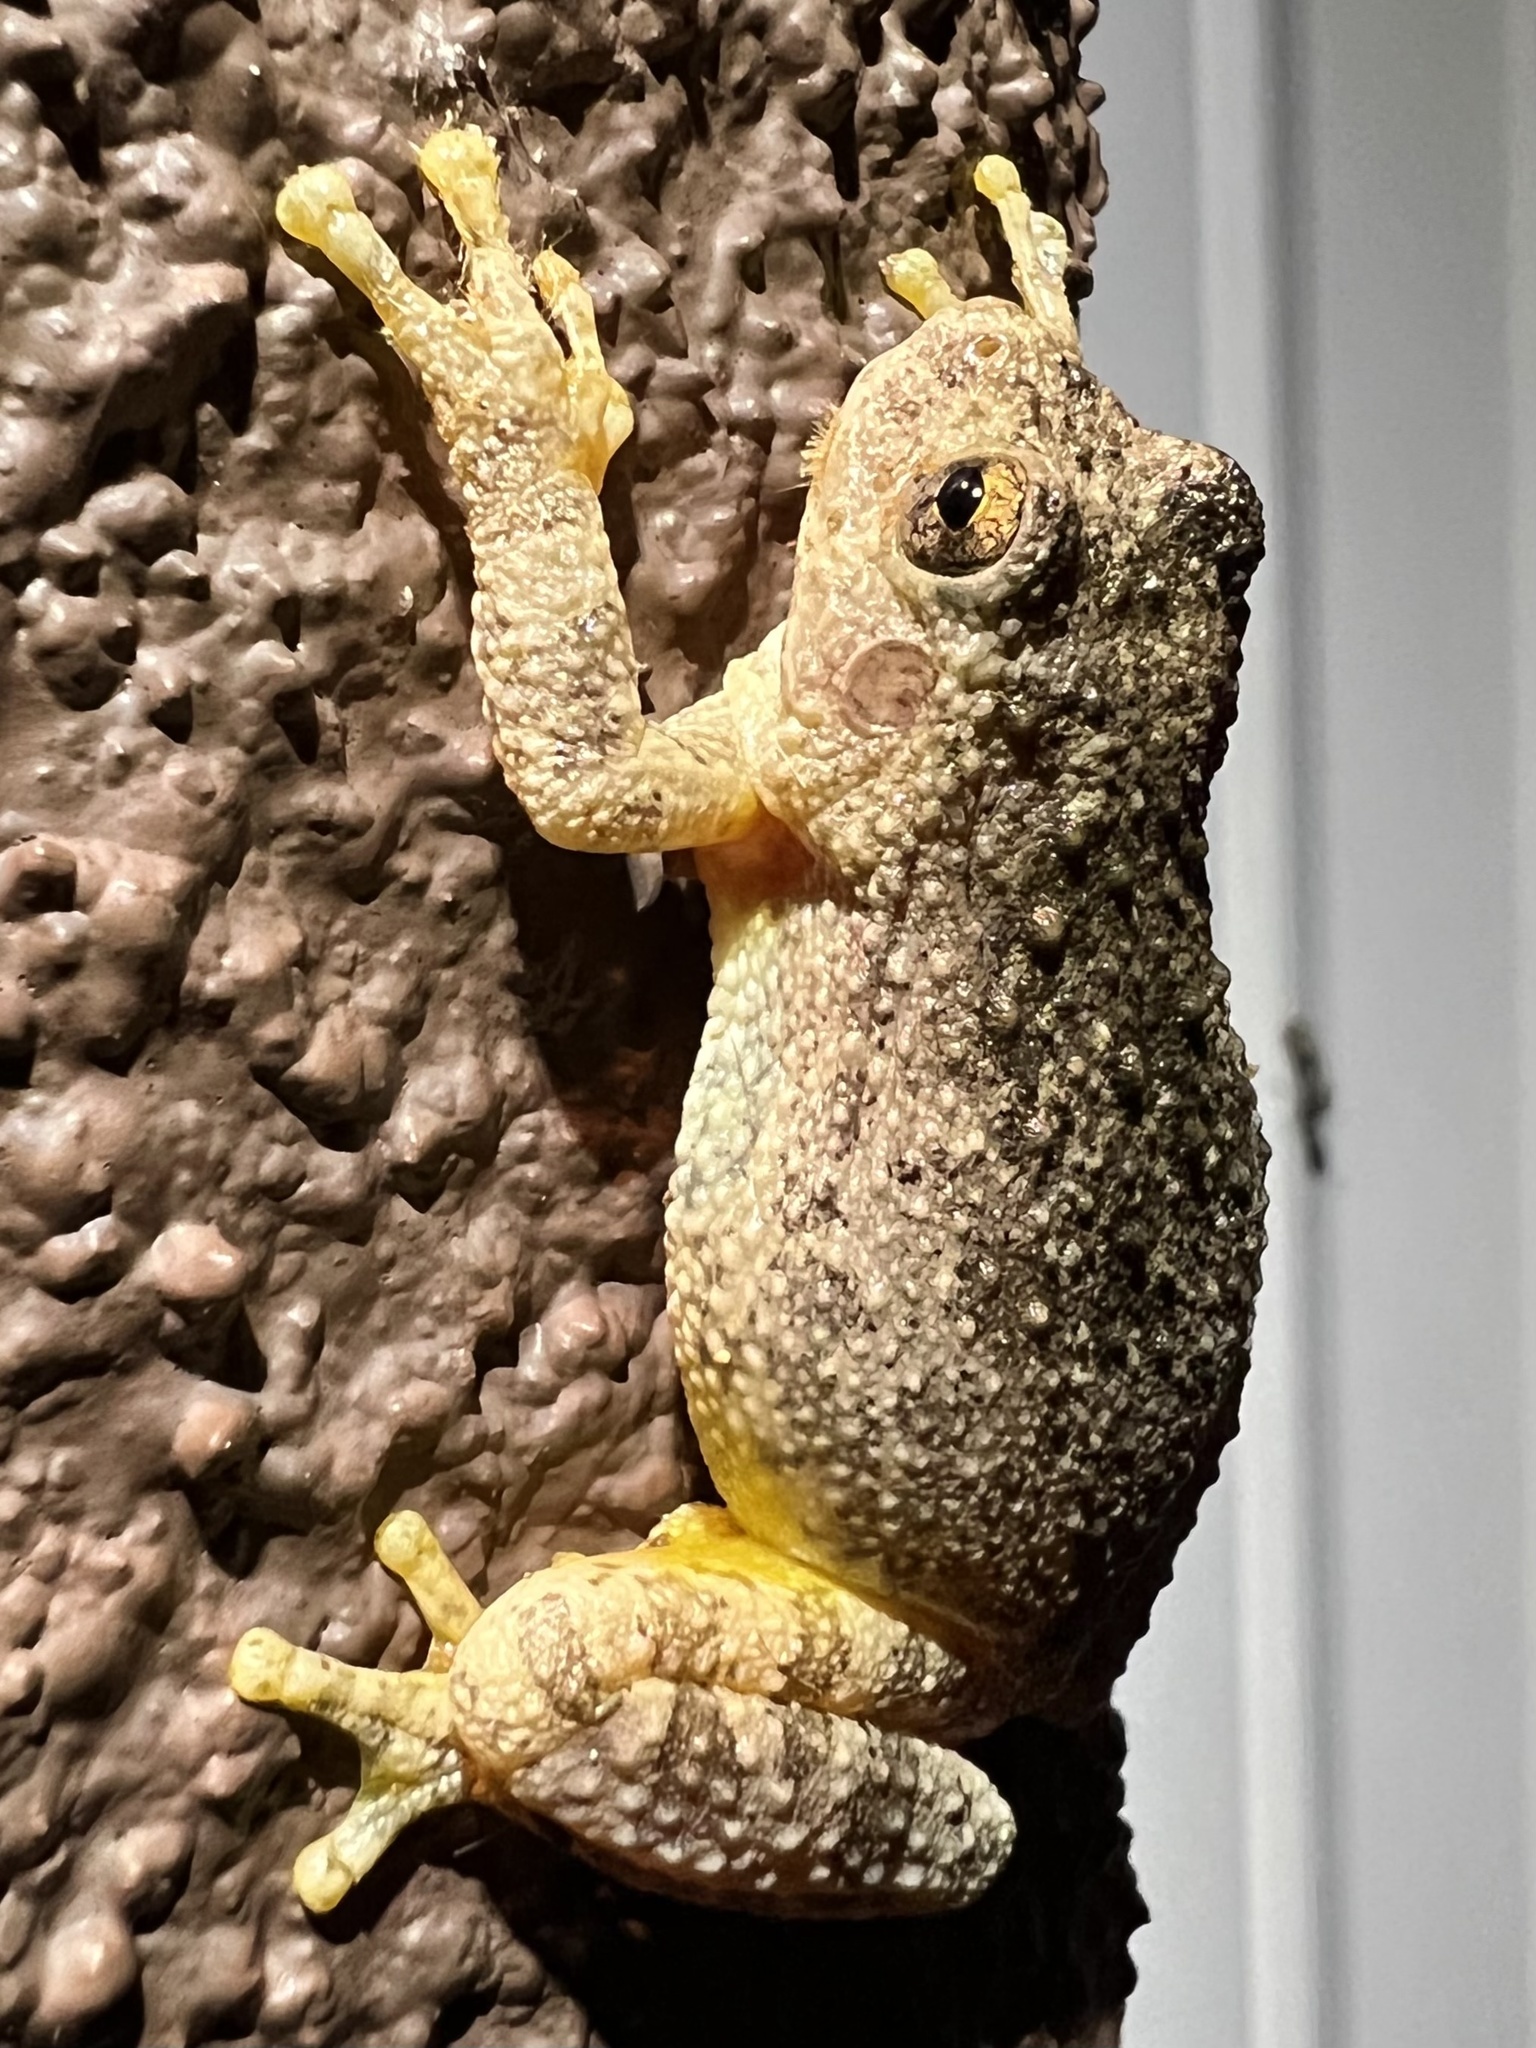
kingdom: Animalia
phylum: Chordata
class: Amphibia
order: Anura
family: Hylidae
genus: Dryophytes
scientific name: Dryophytes arenicolor
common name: Canyon treefrog
